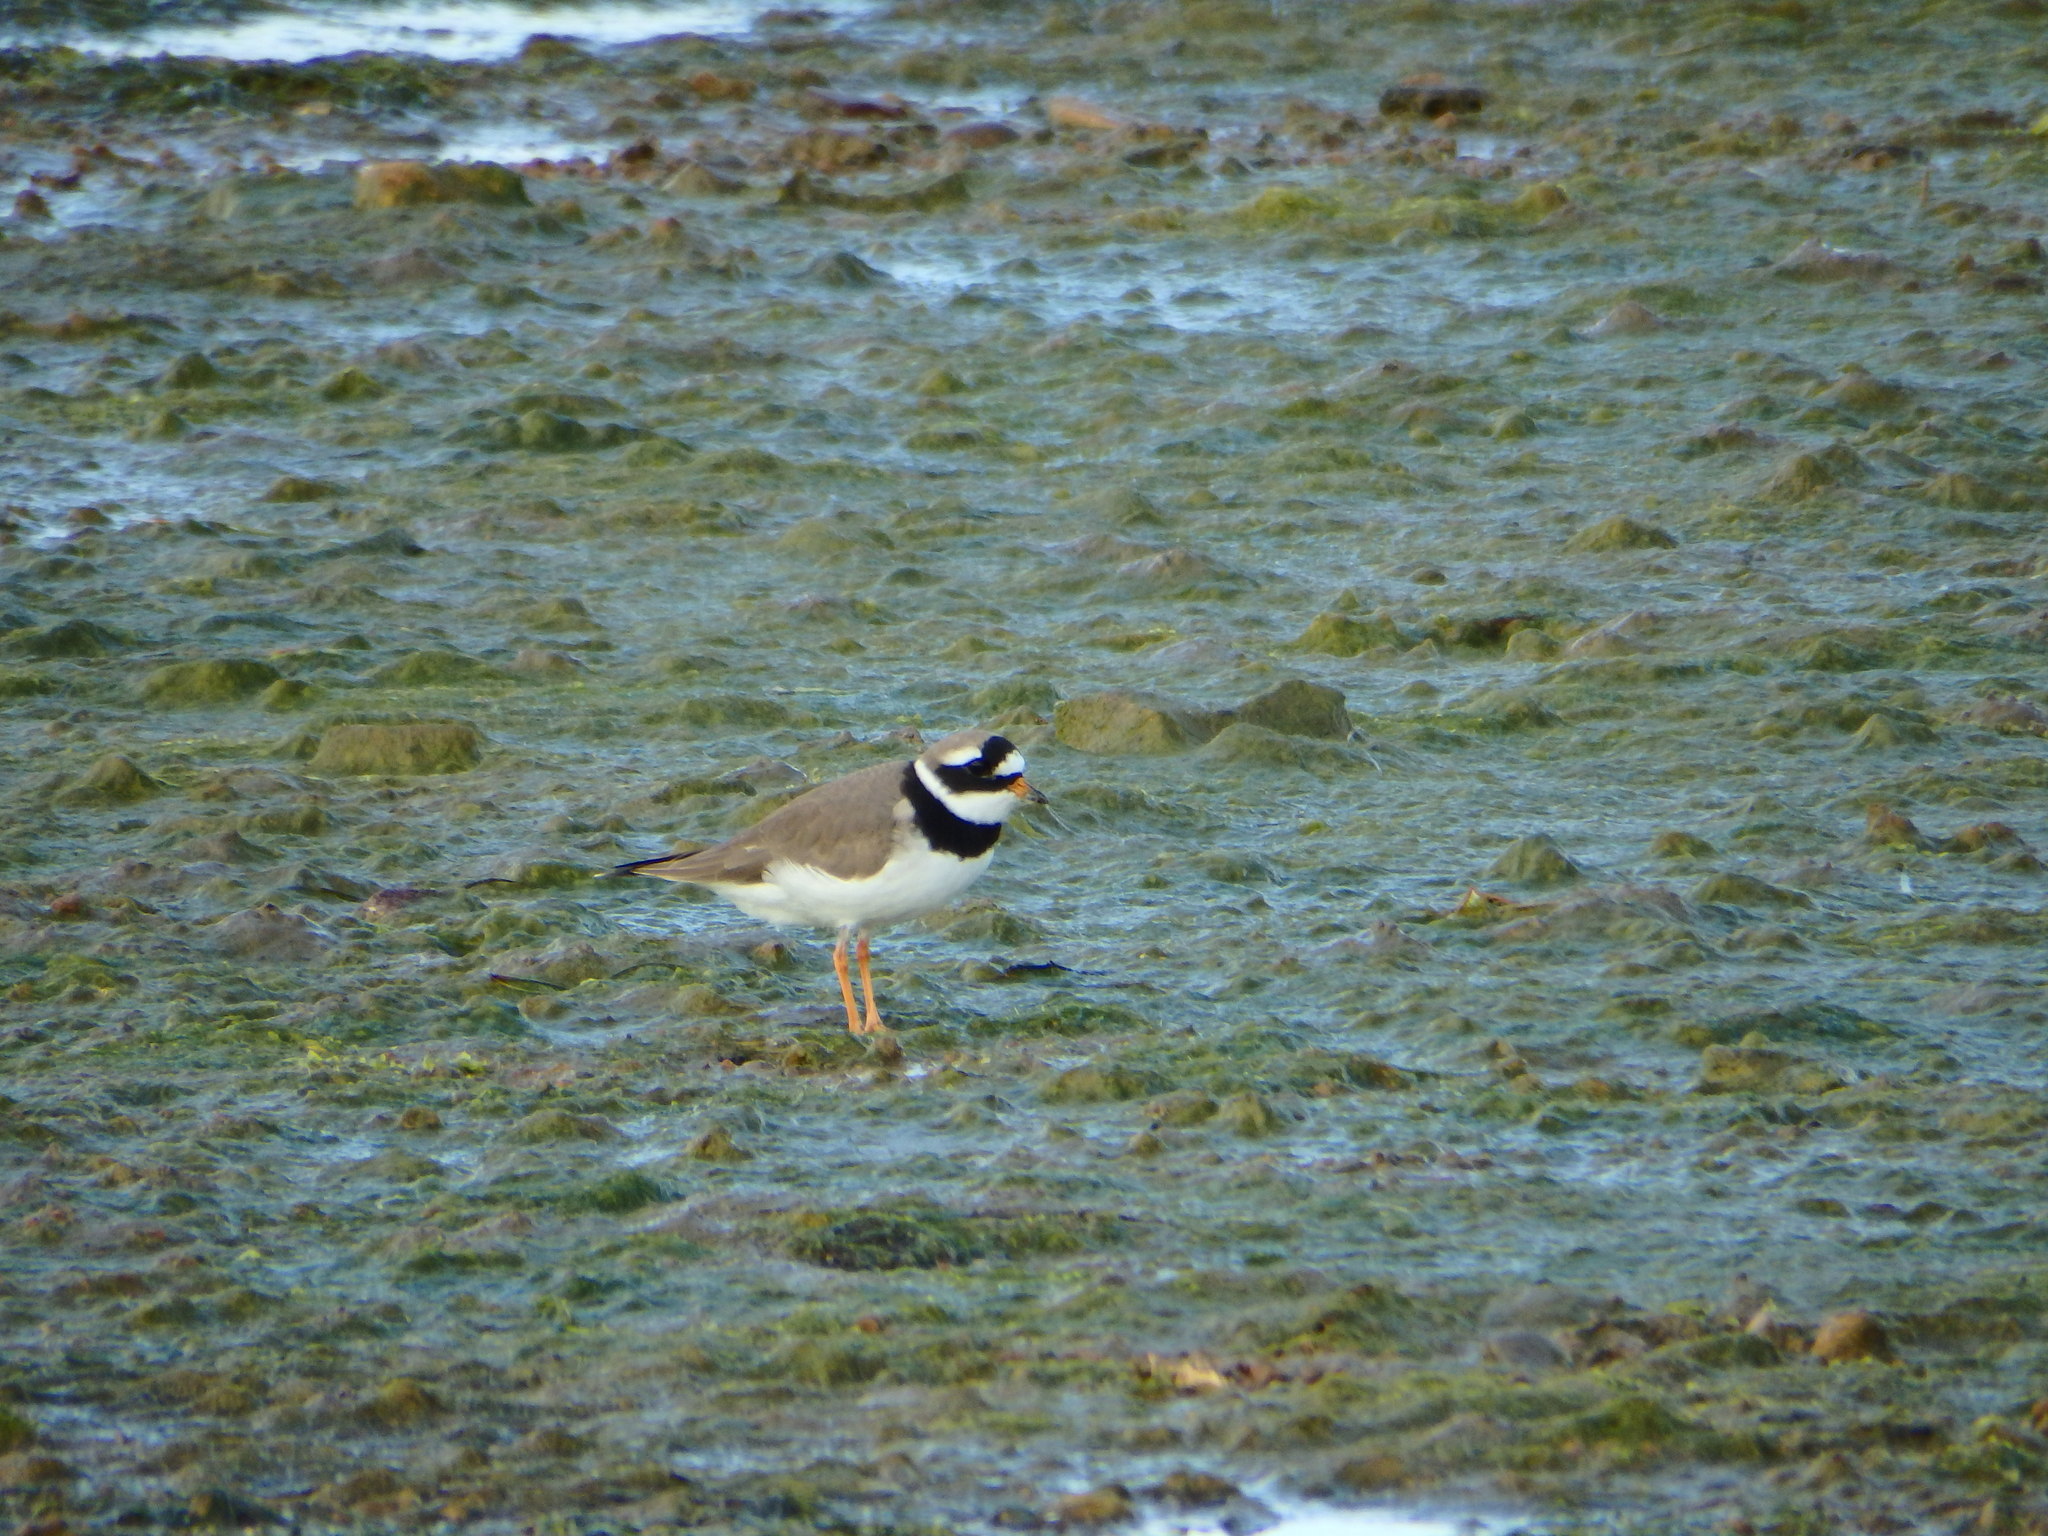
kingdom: Animalia
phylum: Chordata
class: Aves
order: Charadriiformes
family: Charadriidae
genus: Charadrius
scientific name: Charadrius hiaticula
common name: Common ringed plover
